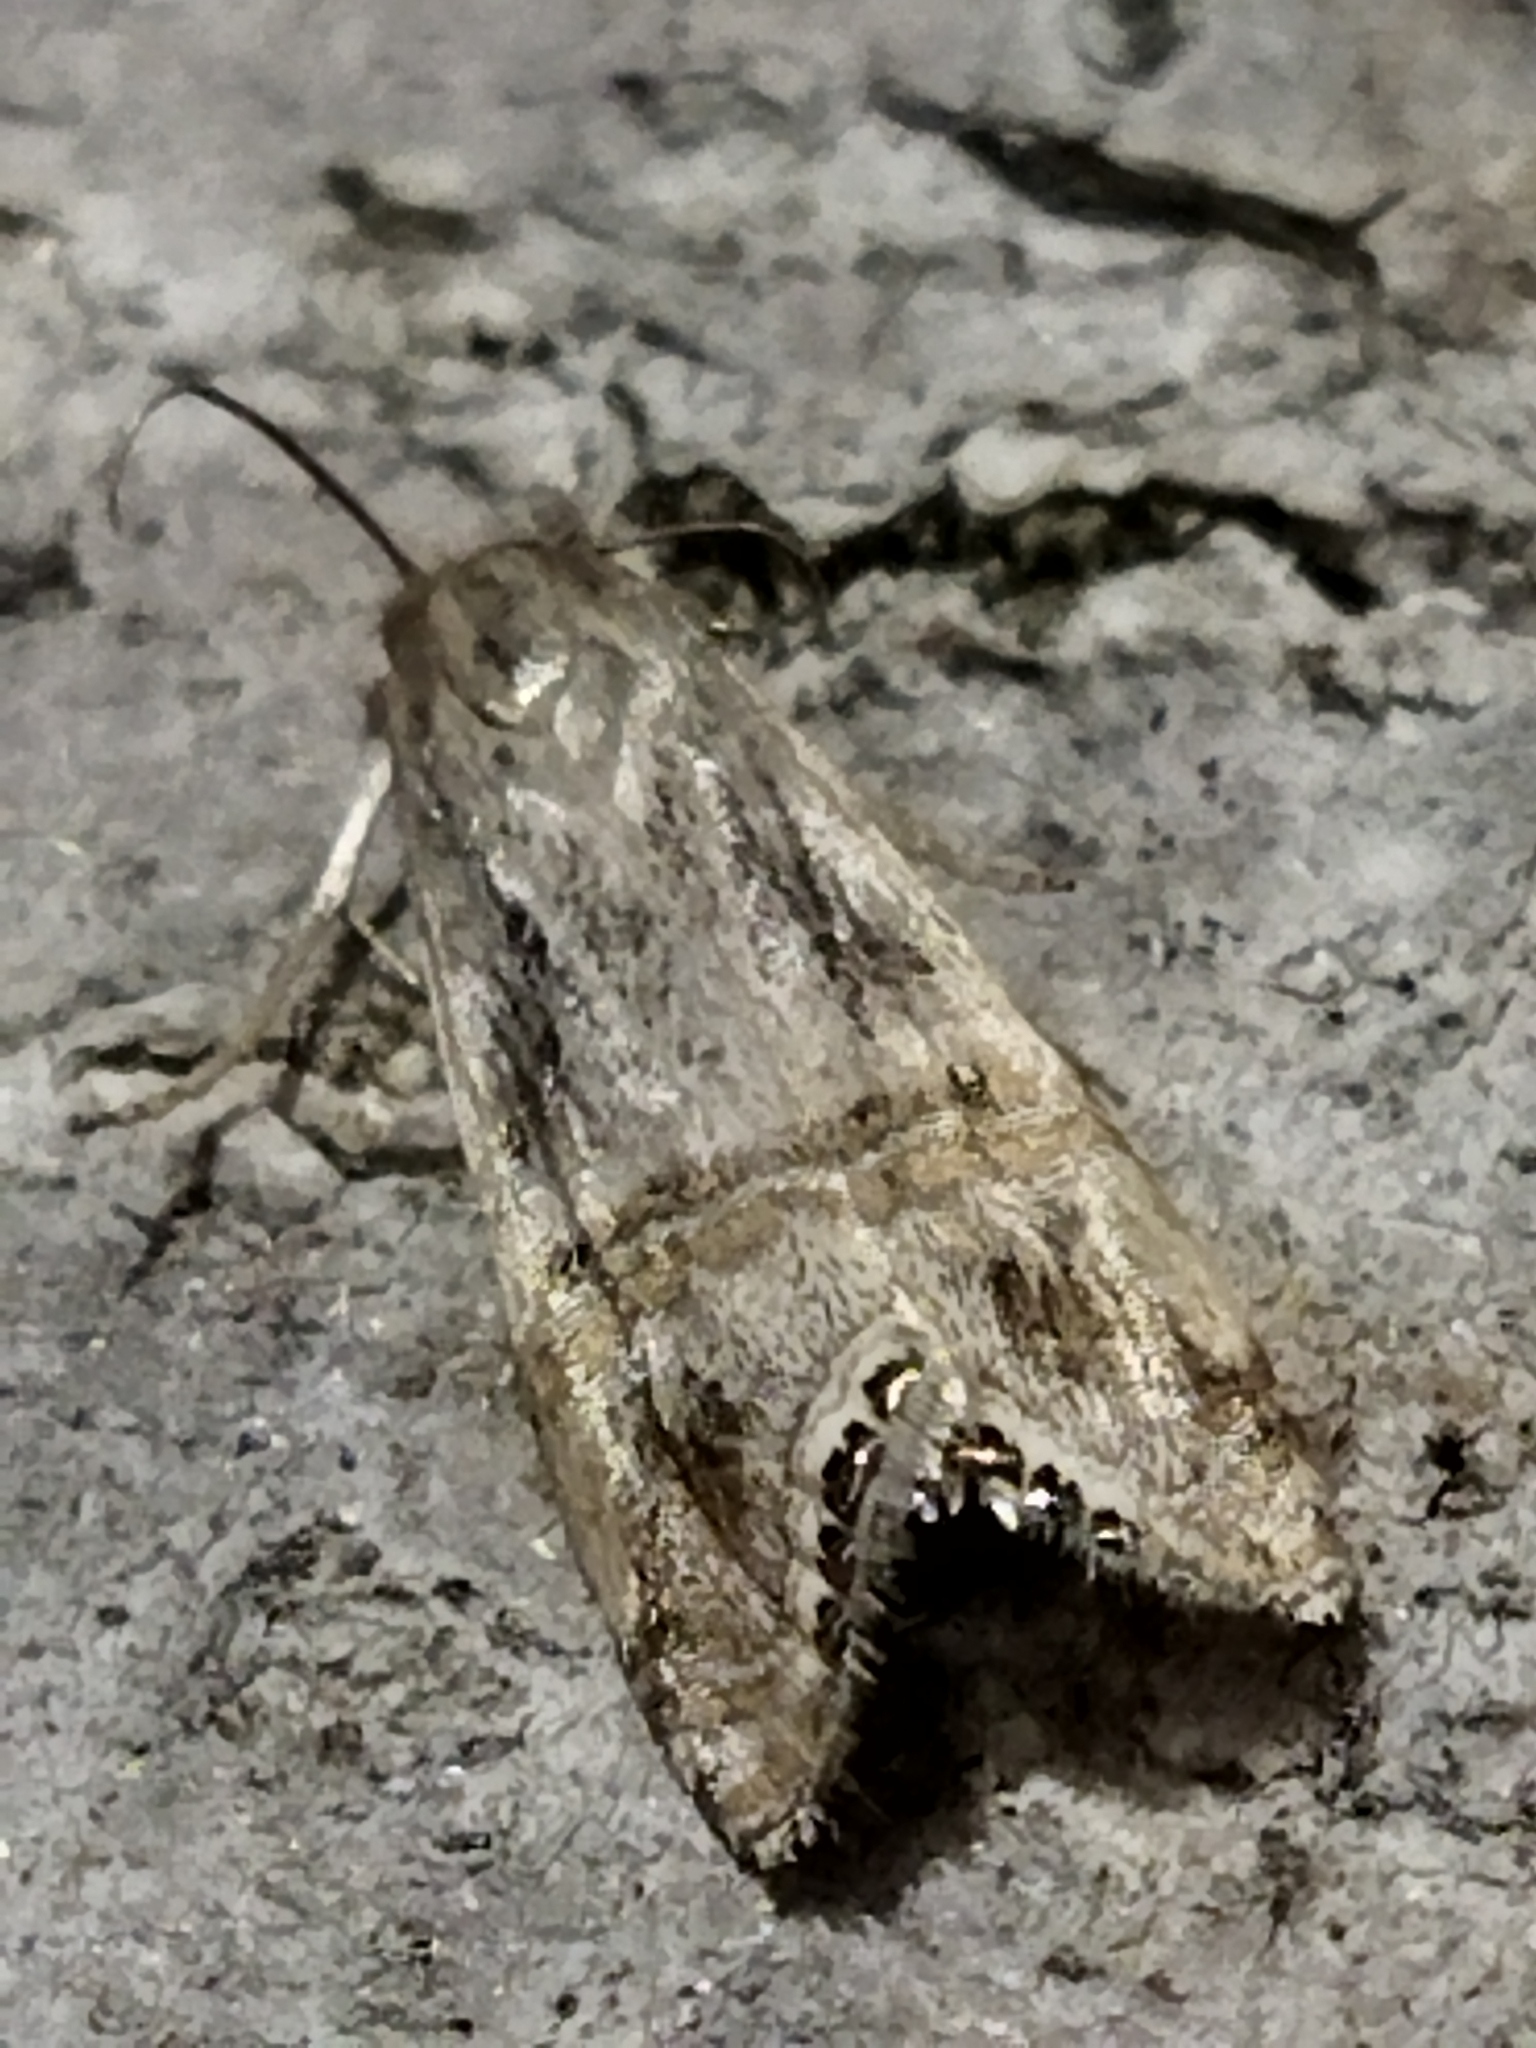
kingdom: Animalia
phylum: Arthropoda
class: Insecta
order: Lepidoptera
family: Crambidae
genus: Euchromius
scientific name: Euchromius ocellea
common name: Necklace veneer moth
